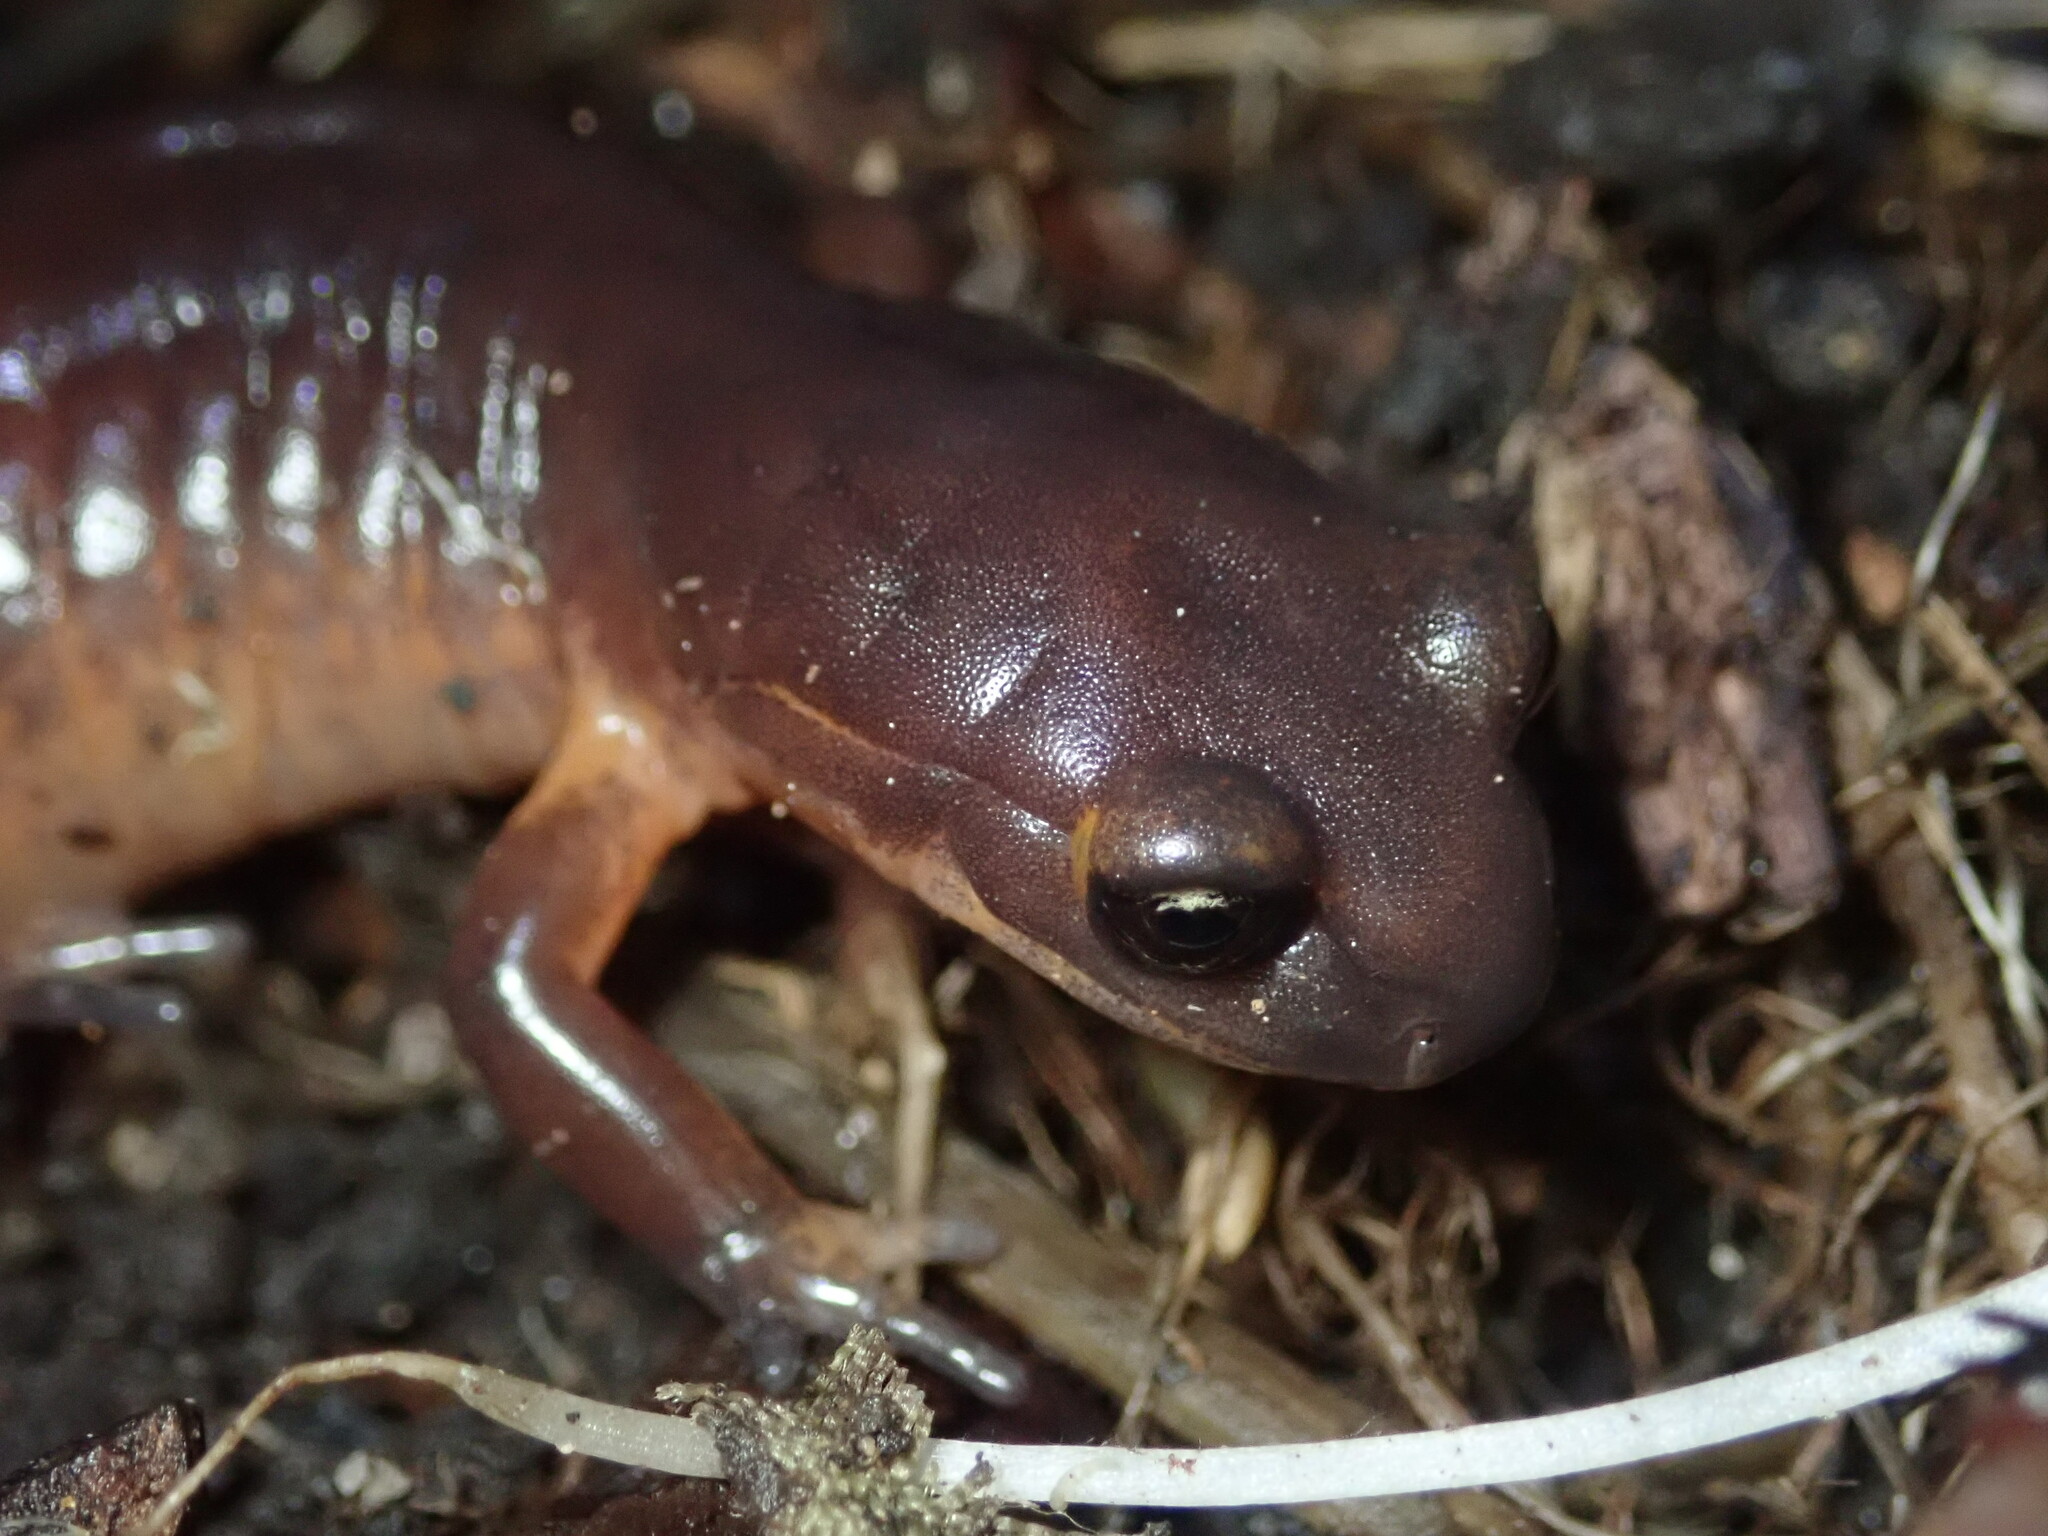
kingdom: Animalia
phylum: Chordata
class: Amphibia
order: Caudata
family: Plethodontidae
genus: Ensatina
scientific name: Ensatina eschscholtzii
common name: Ensatina
